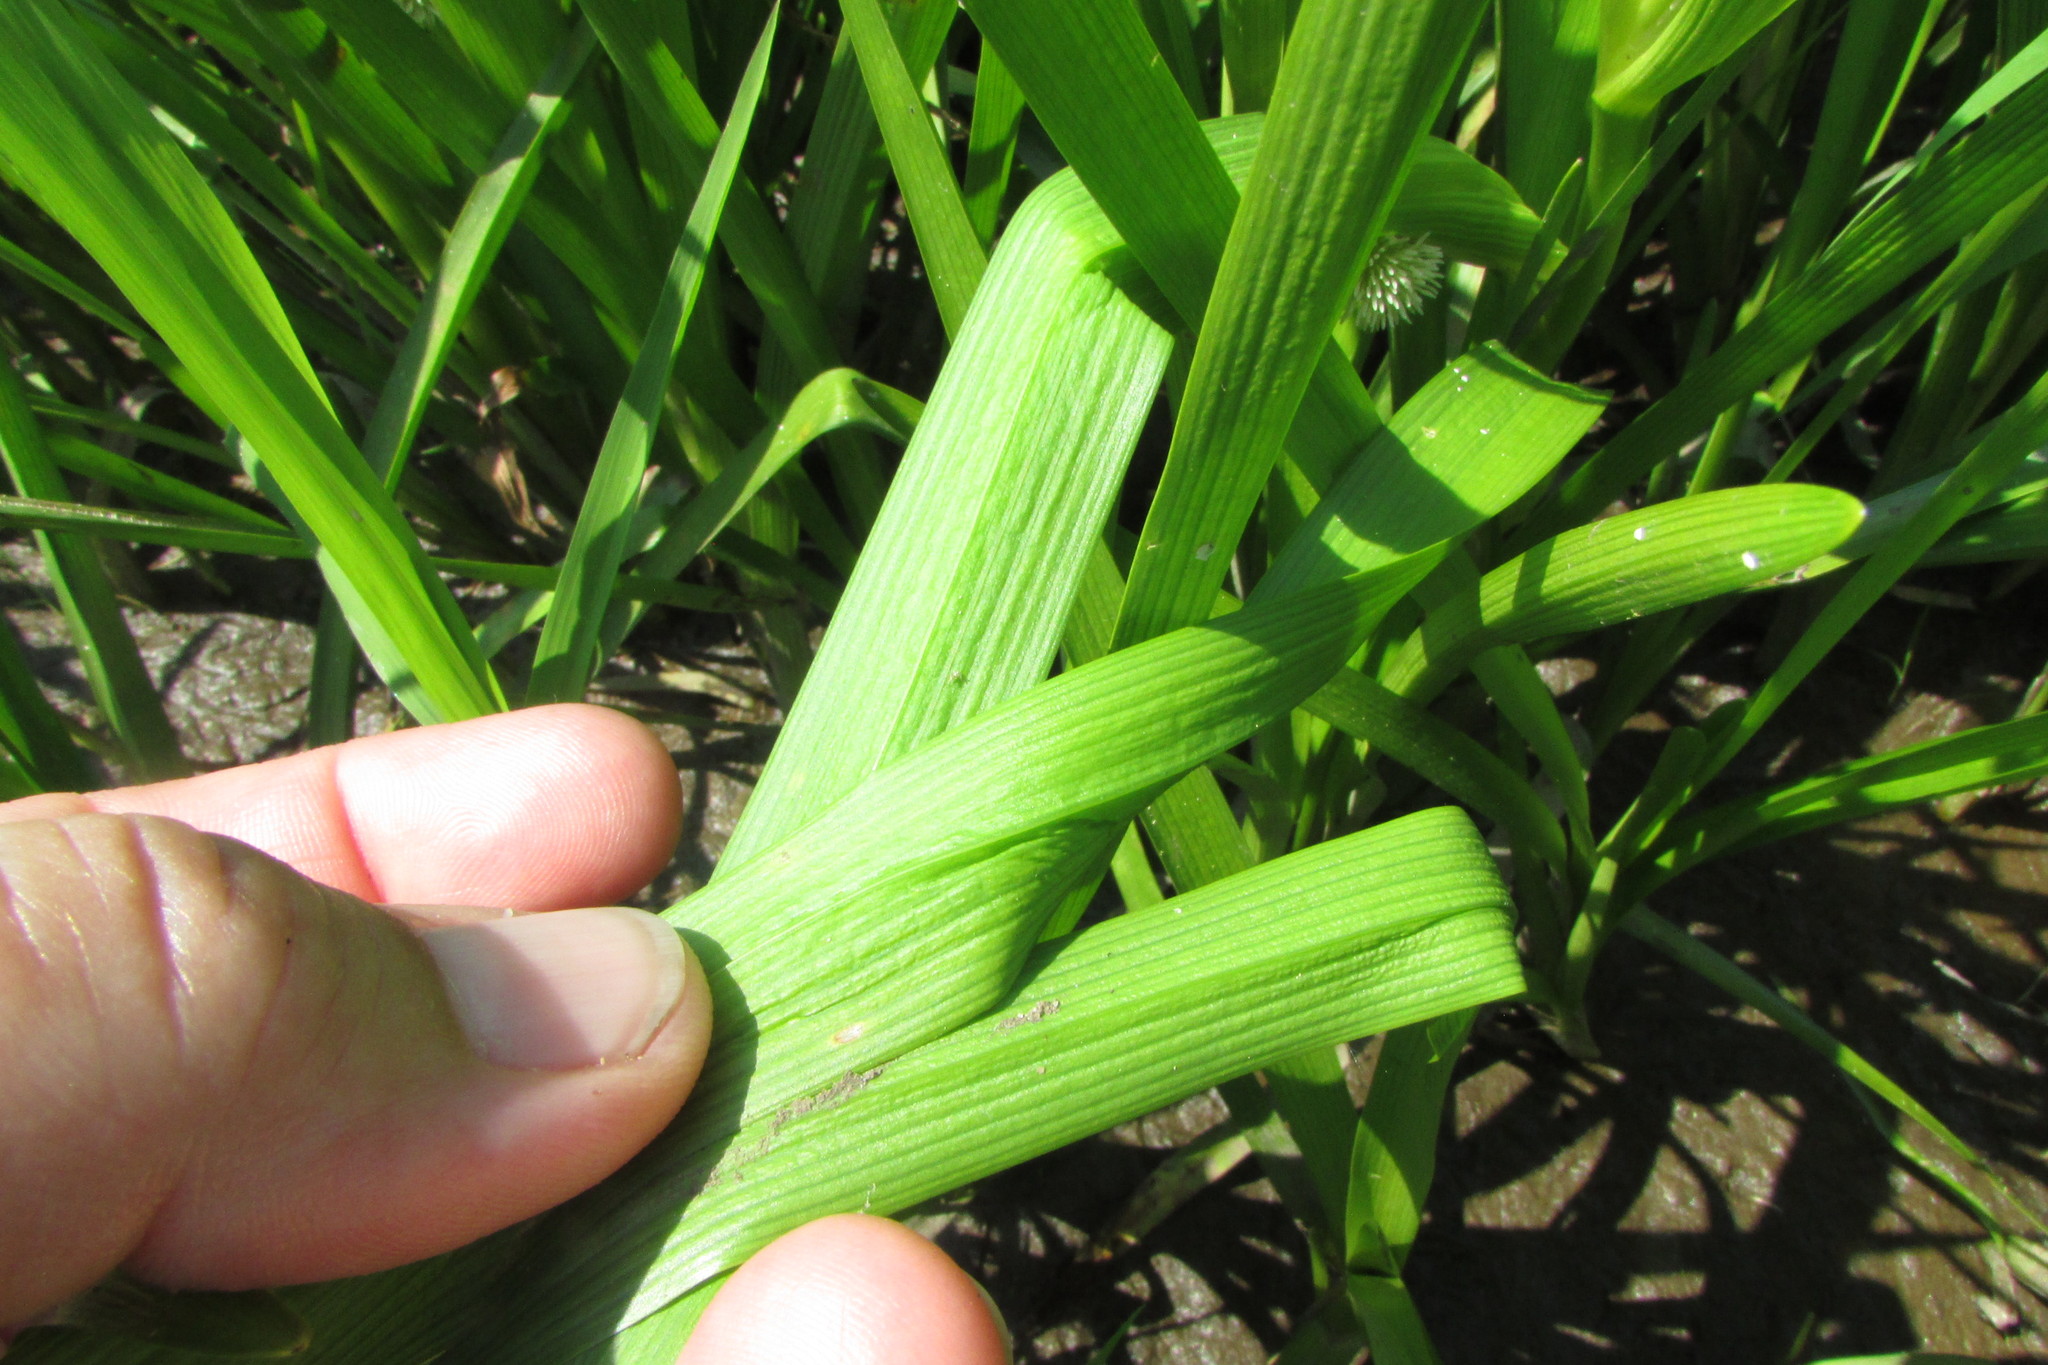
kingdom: Plantae
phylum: Tracheophyta
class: Liliopsida
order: Poales
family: Typhaceae
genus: Sparganium
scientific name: Sparganium emersum
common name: Unbranched bur-reed
